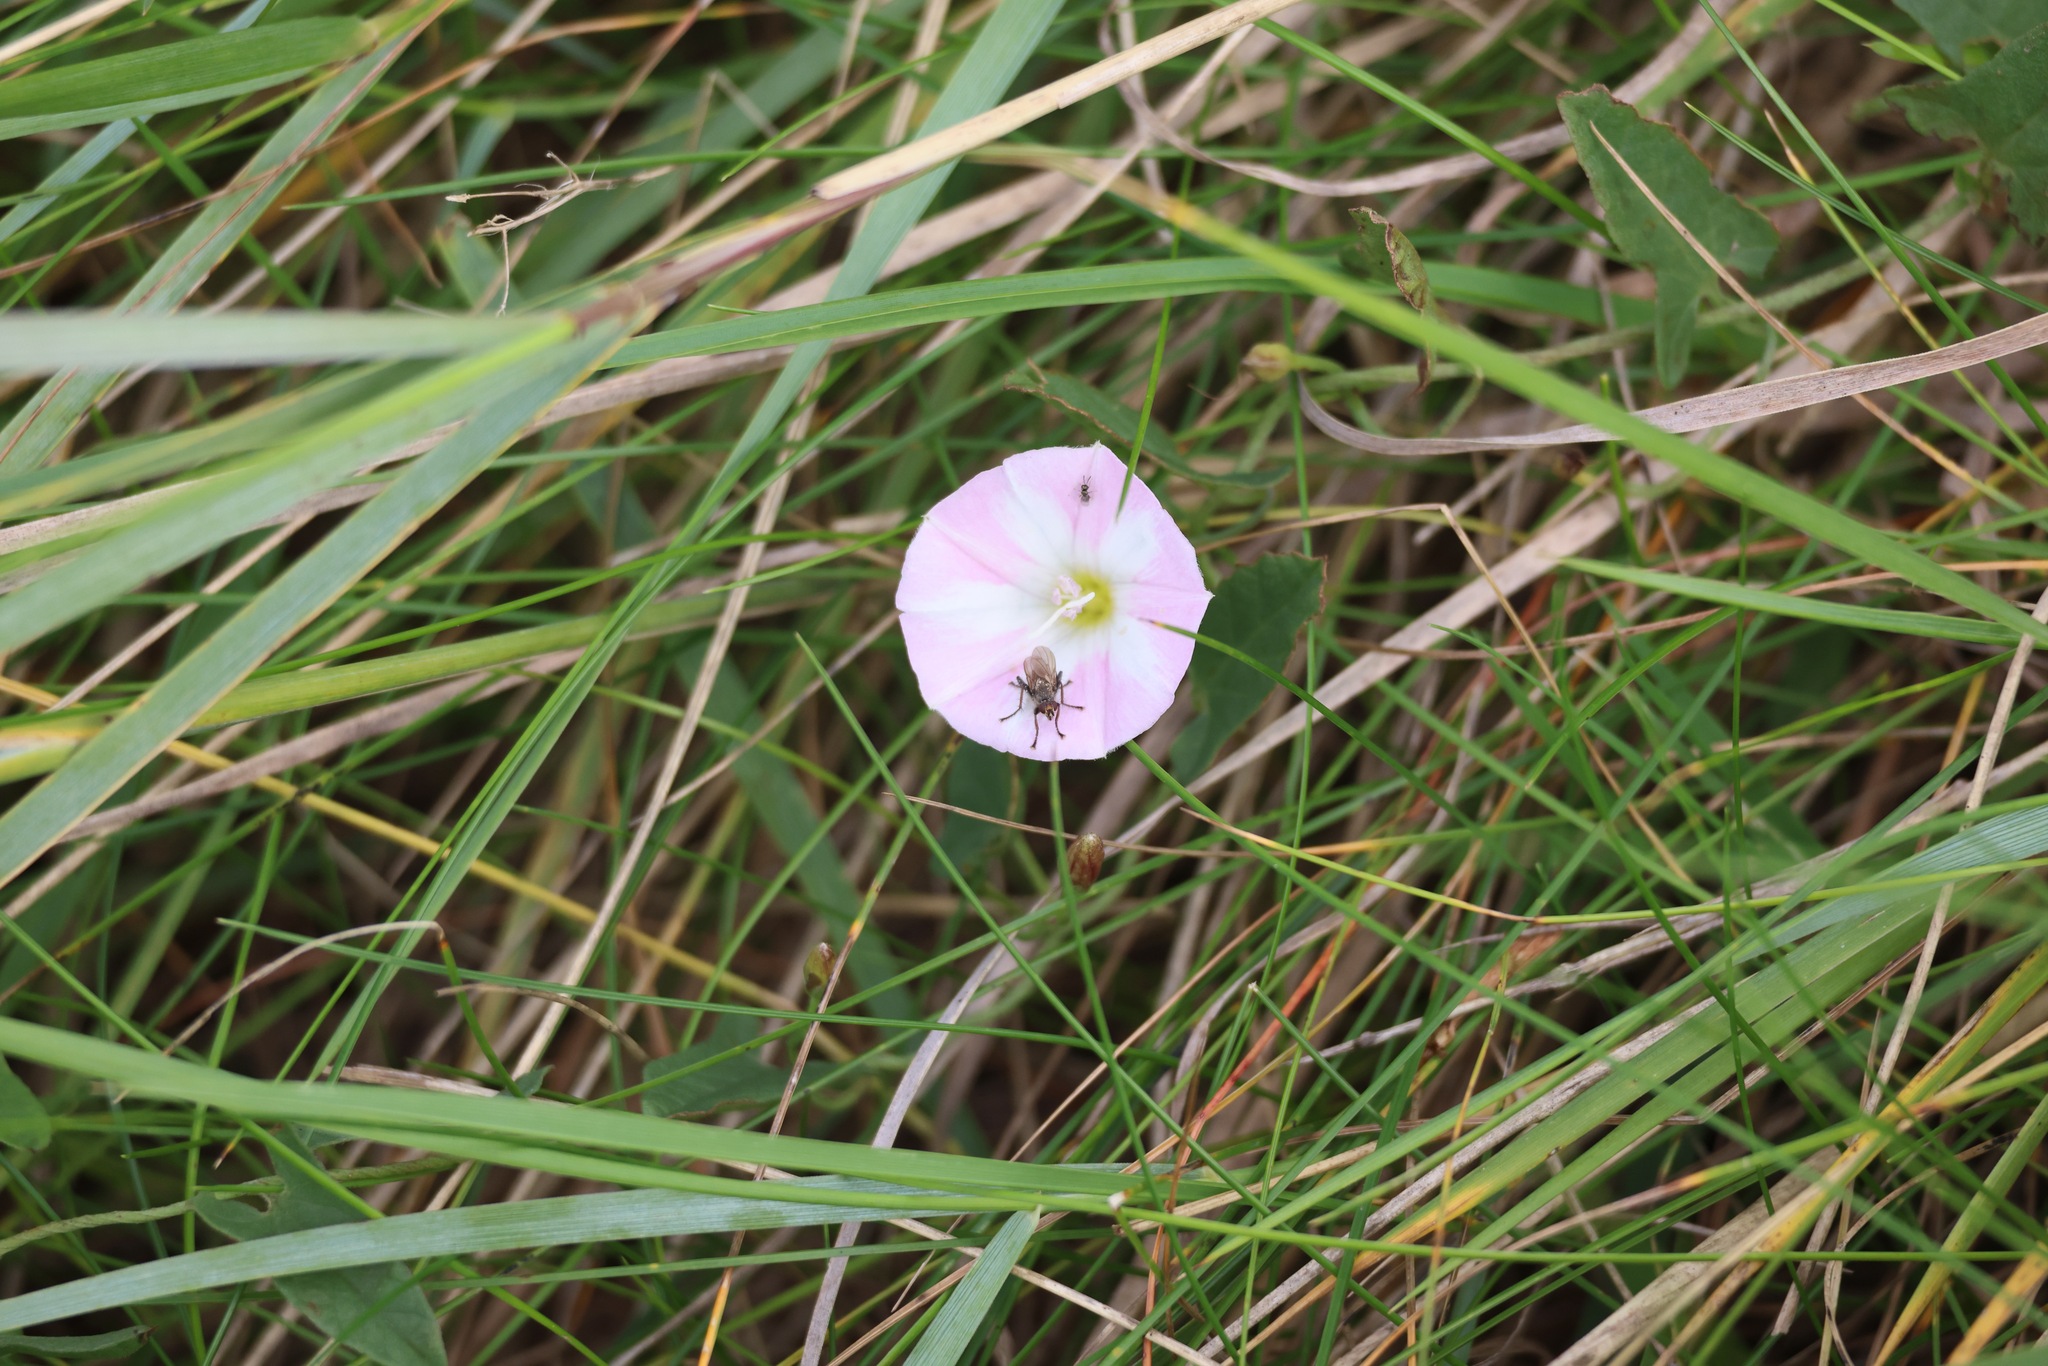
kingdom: Plantae
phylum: Tracheophyta
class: Magnoliopsida
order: Solanales
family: Convolvulaceae
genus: Convolvulus
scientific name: Convolvulus arvensis
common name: Field bindweed
